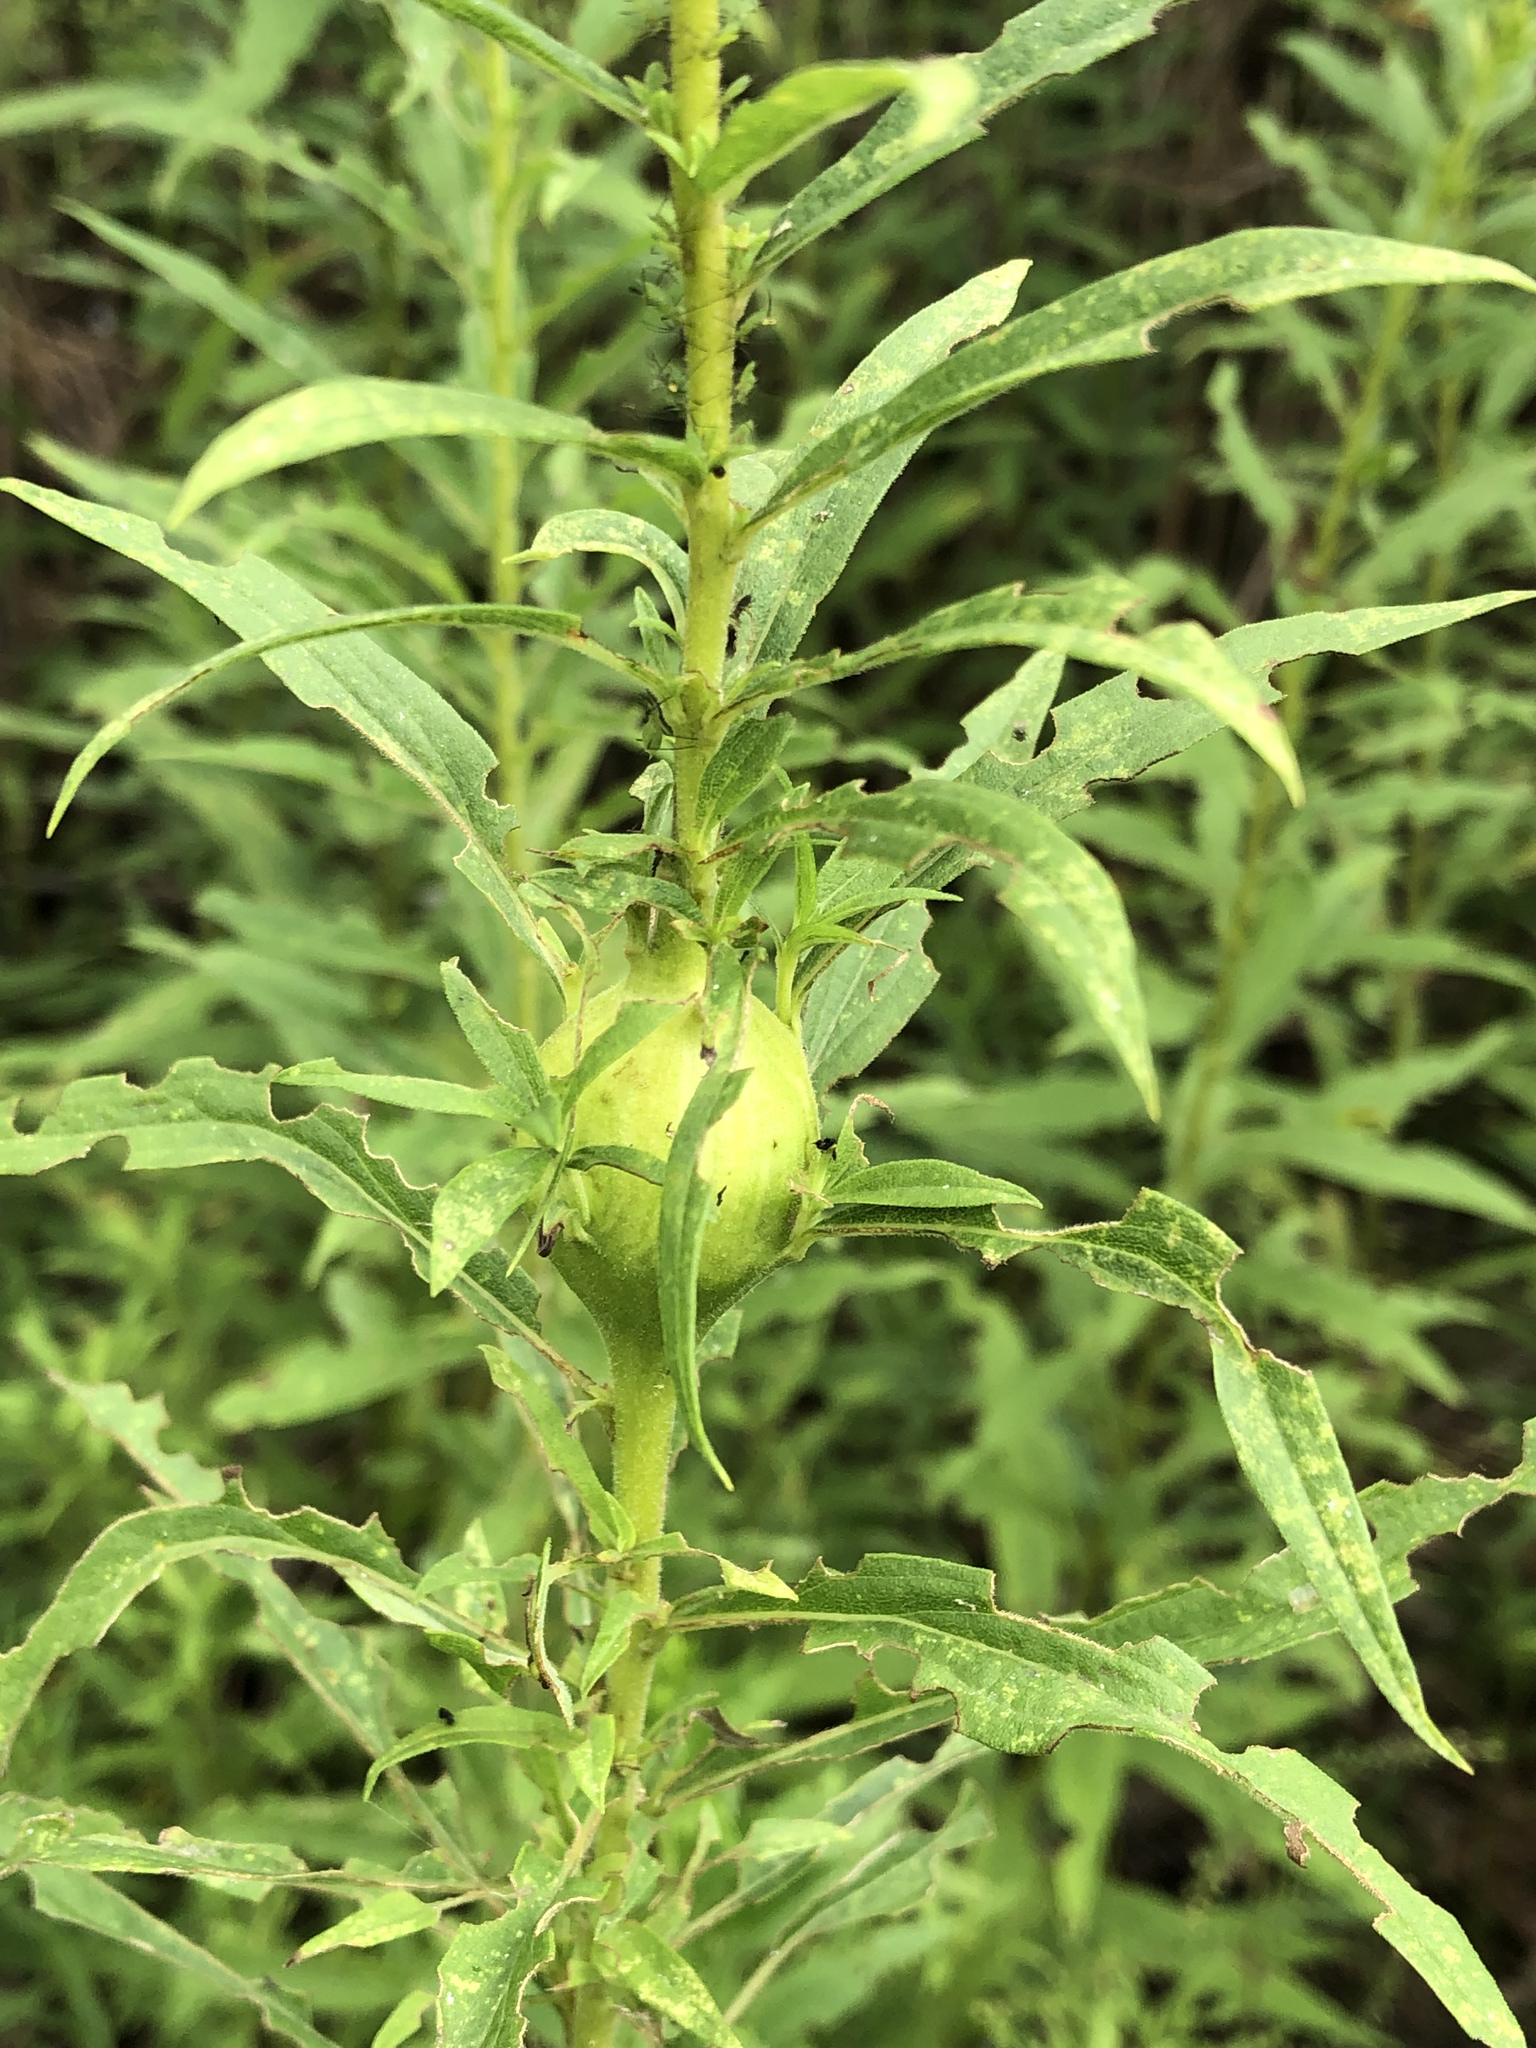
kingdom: Animalia
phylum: Arthropoda
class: Insecta
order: Diptera
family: Tephritidae
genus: Eurosta
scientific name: Eurosta solidaginis
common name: Goldenrod gall fly
